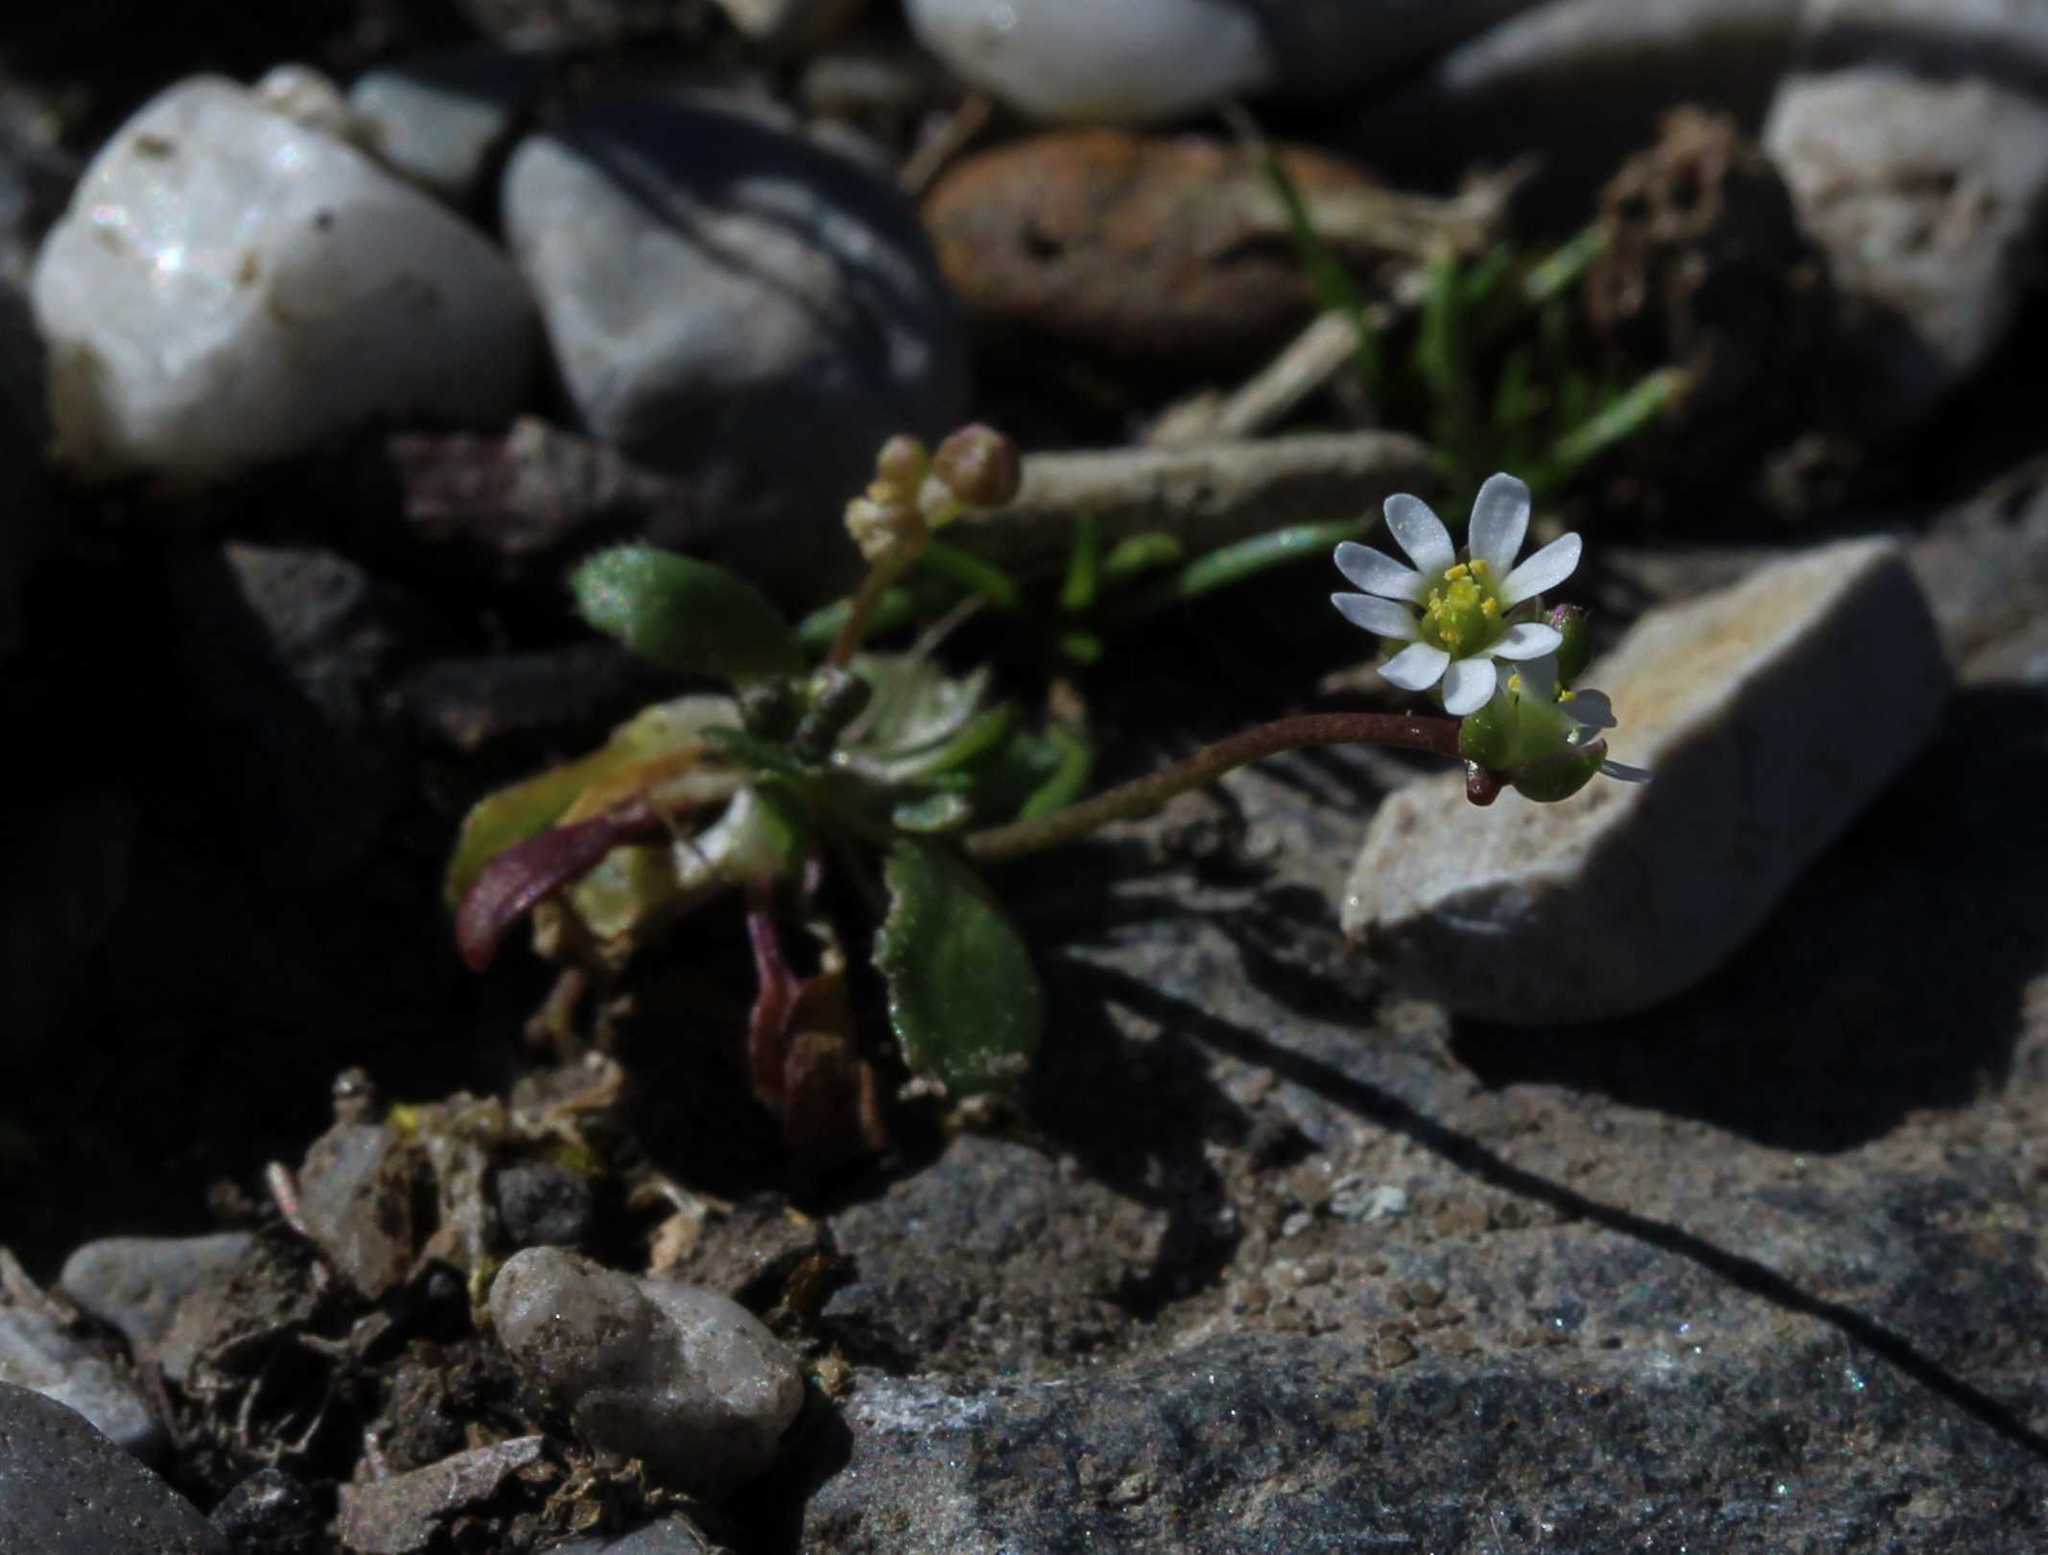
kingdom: Plantae
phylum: Tracheophyta
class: Magnoliopsida
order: Brassicales
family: Brassicaceae
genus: Draba
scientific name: Draba verna
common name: Spring draba
